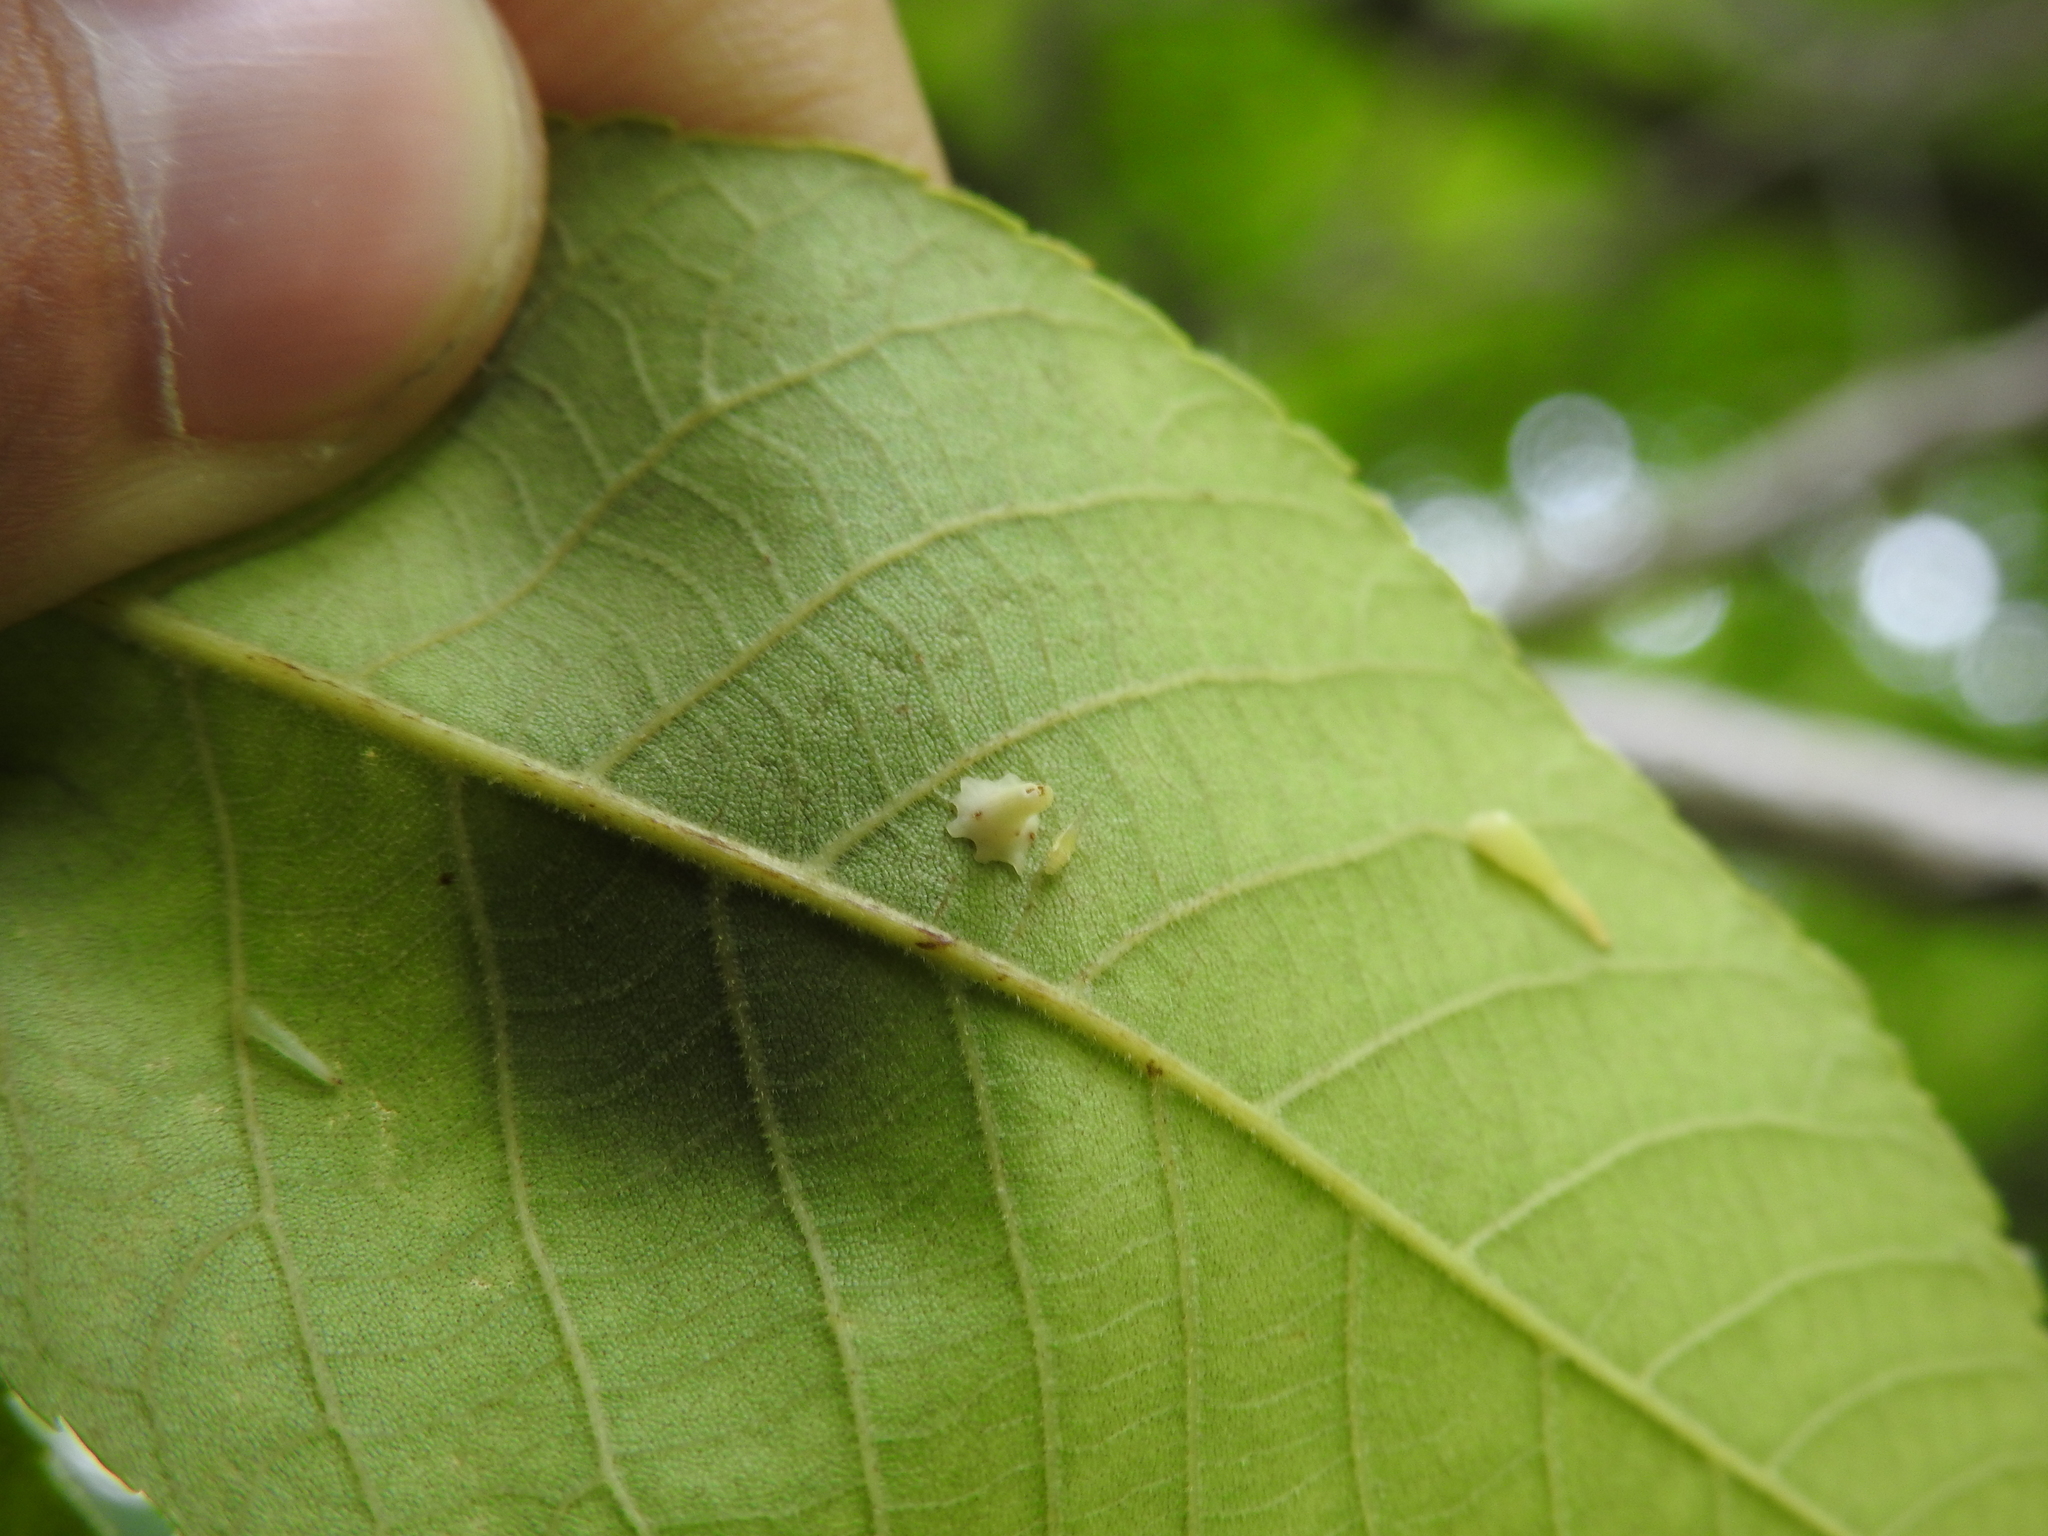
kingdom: Animalia
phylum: Arthropoda
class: Insecta
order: Diptera
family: Cecidomyiidae
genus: Caryomyia
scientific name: Caryomyia stellata
